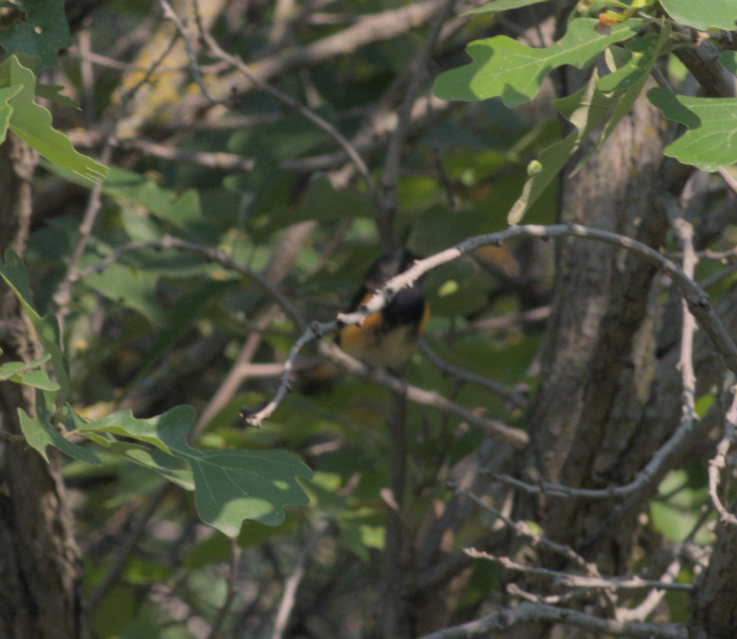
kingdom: Animalia
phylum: Chordata
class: Aves
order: Passeriformes
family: Parulidae
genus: Setophaga
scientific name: Setophaga ruticilla
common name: American redstart
